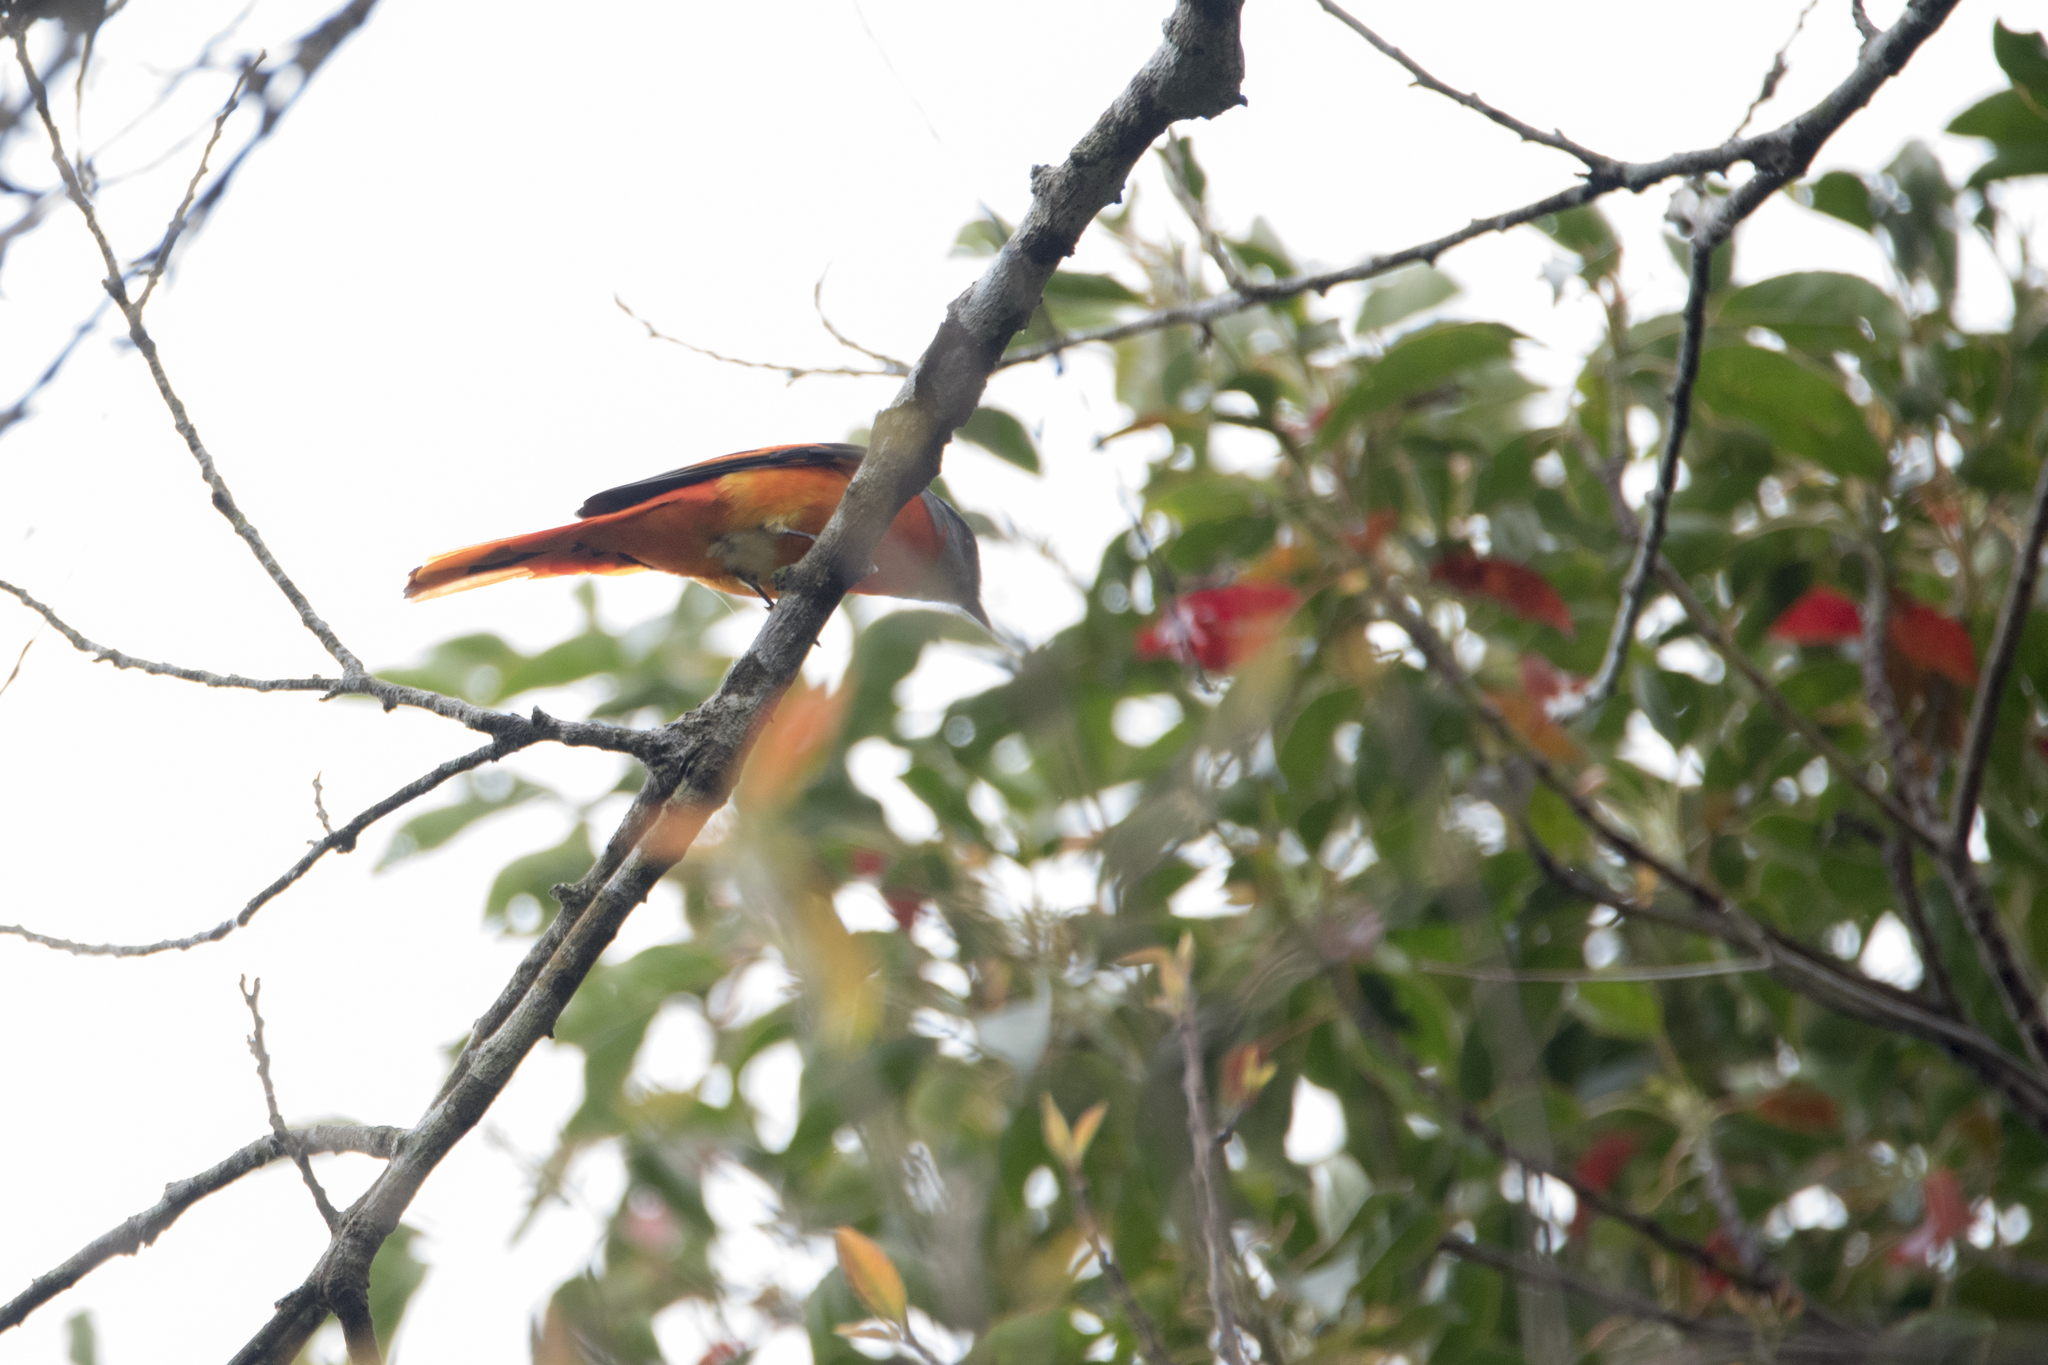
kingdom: Animalia
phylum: Chordata
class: Aves
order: Passeriformes
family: Campephagidae
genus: Pericrocotus
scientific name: Pericrocotus solaris
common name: Grey-chinned minivet
